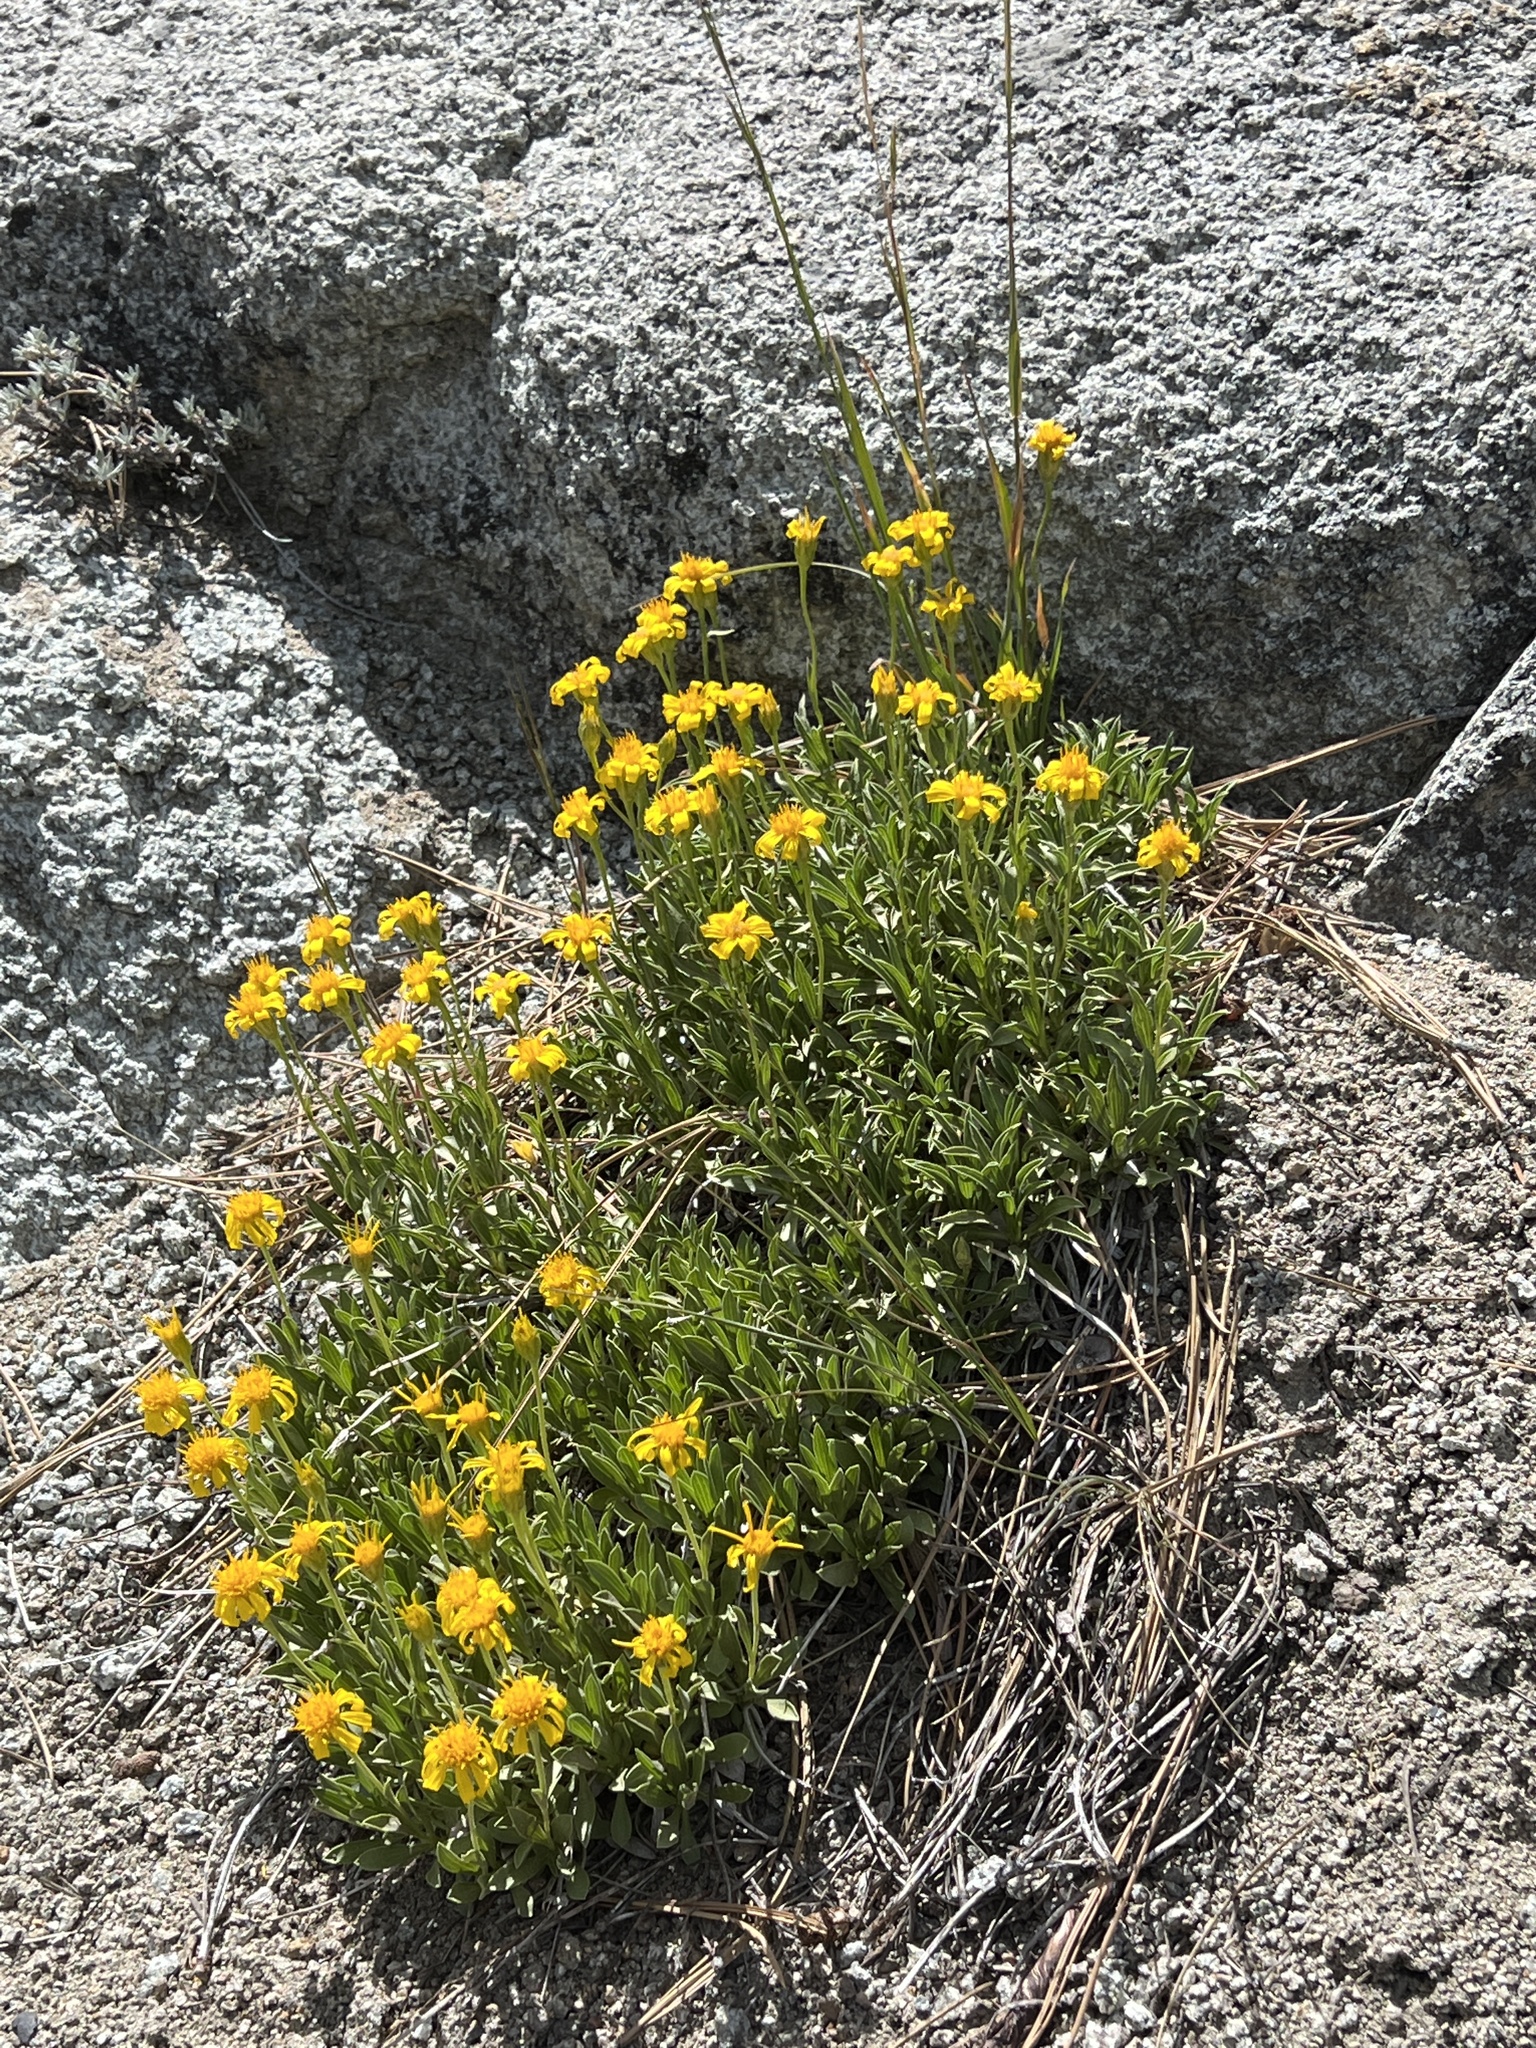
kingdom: Plantae
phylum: Tracheophyta
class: Magnoliopsida
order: Asterales
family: Asteraceae
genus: Stenotus
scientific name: Stenotus acaulis
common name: Stemless goldenweed
